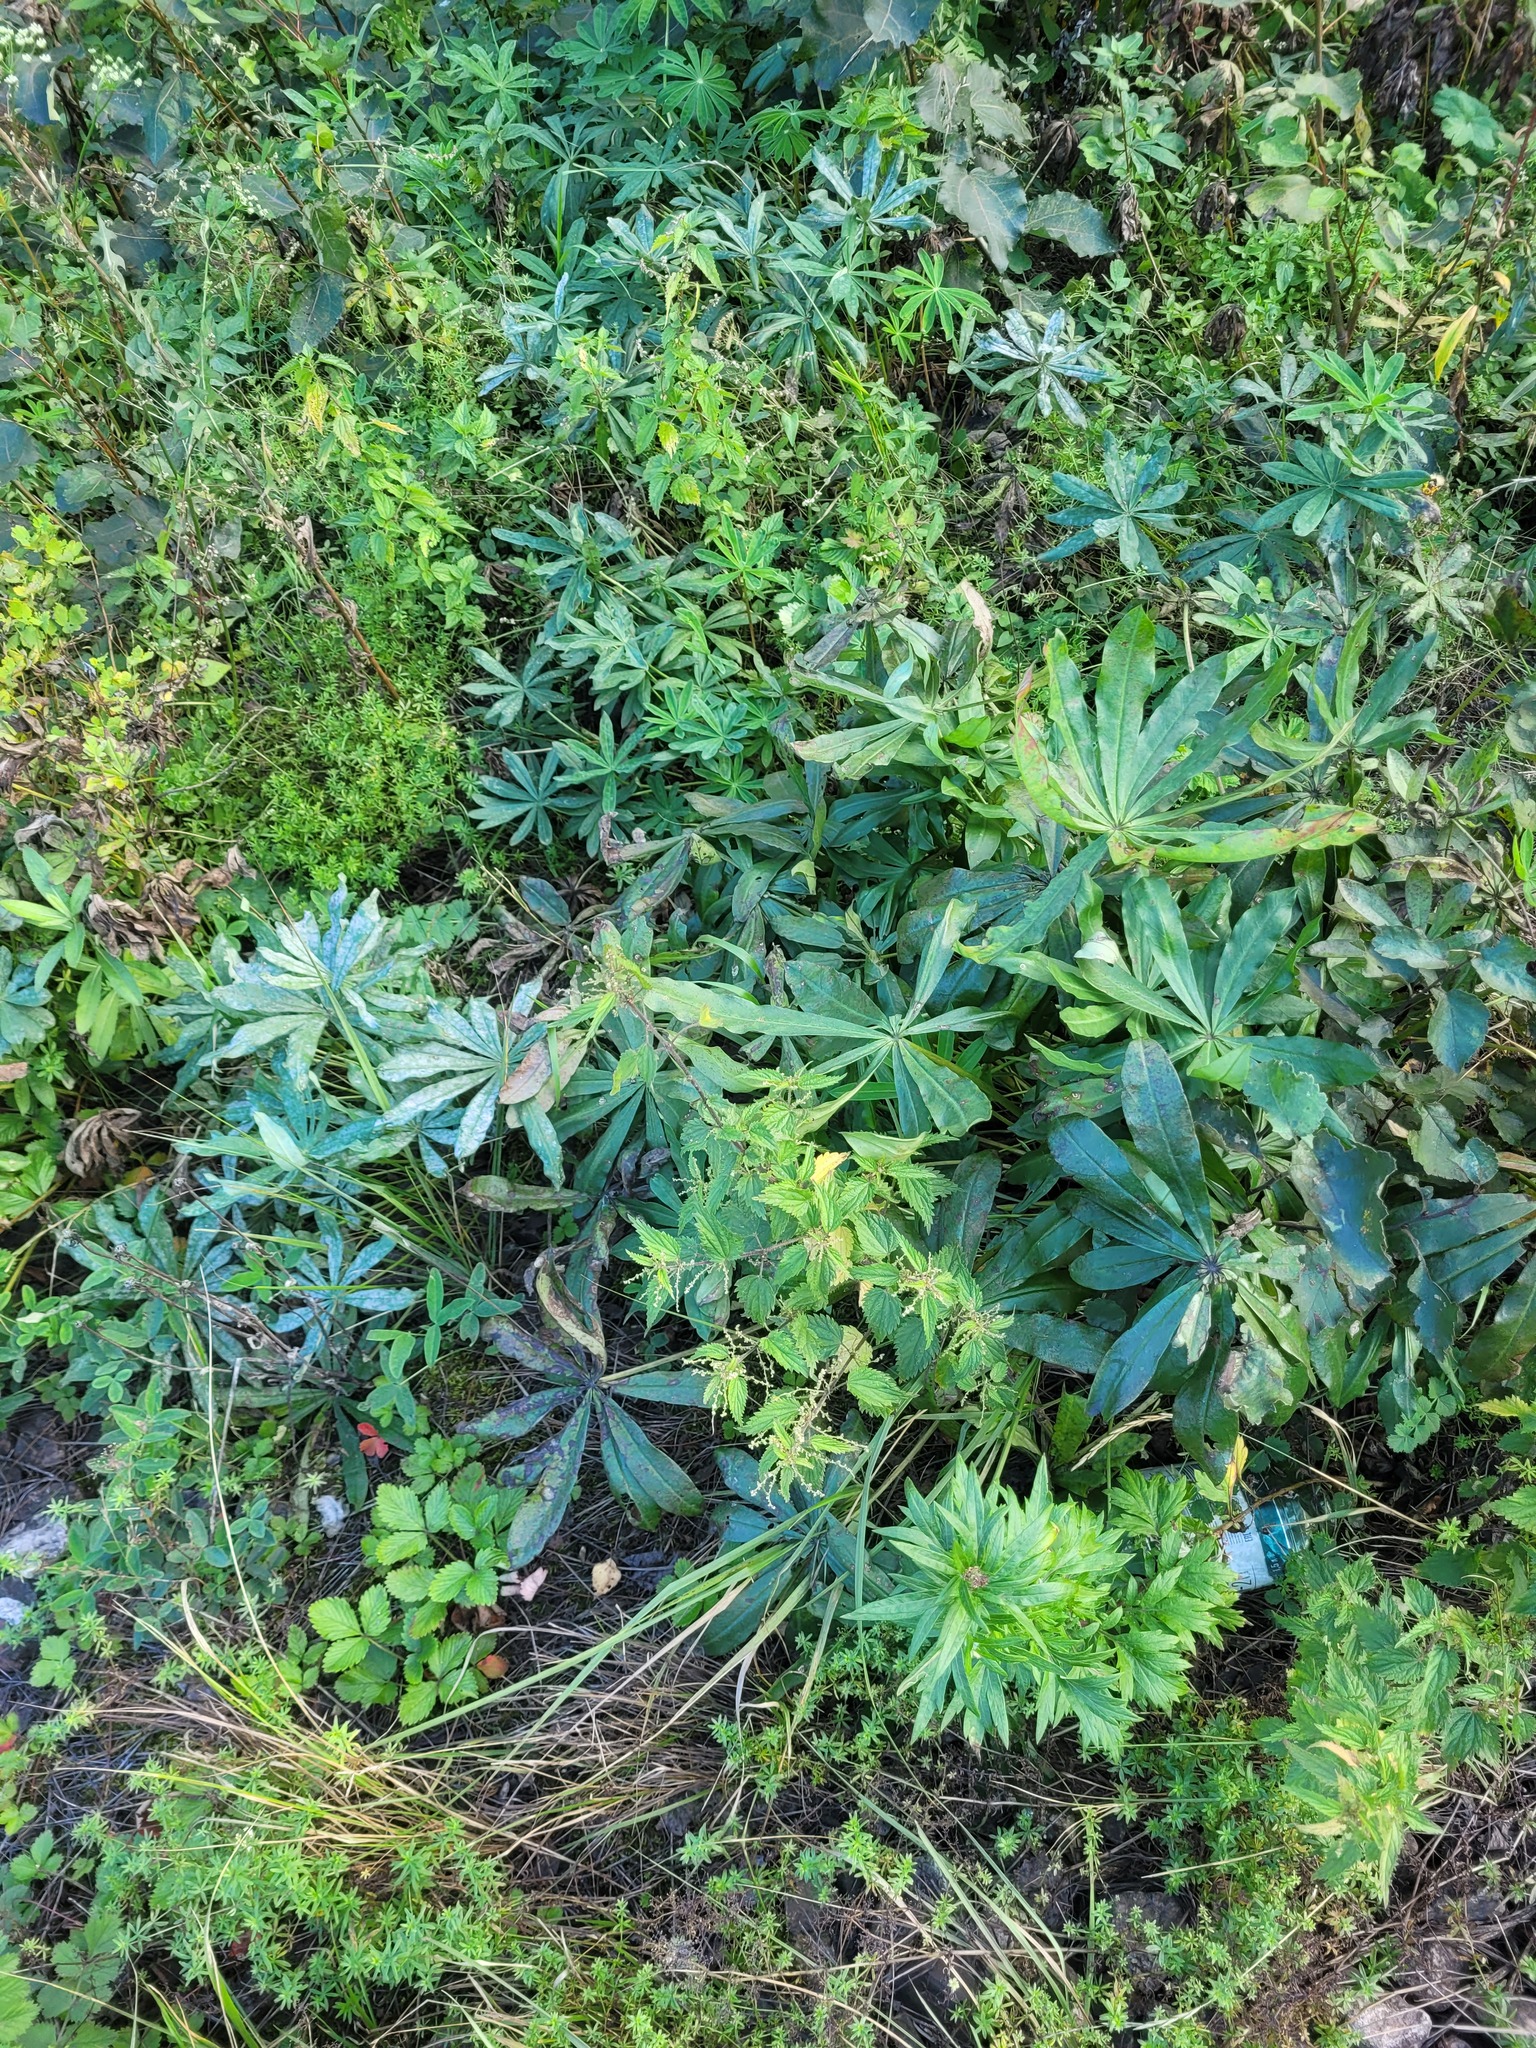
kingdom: Plantae
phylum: Tracheophyta
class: Magnoliopsida
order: Rosales
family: Urticaceae
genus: Urtica
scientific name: Urtica dioica
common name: Common nettle
